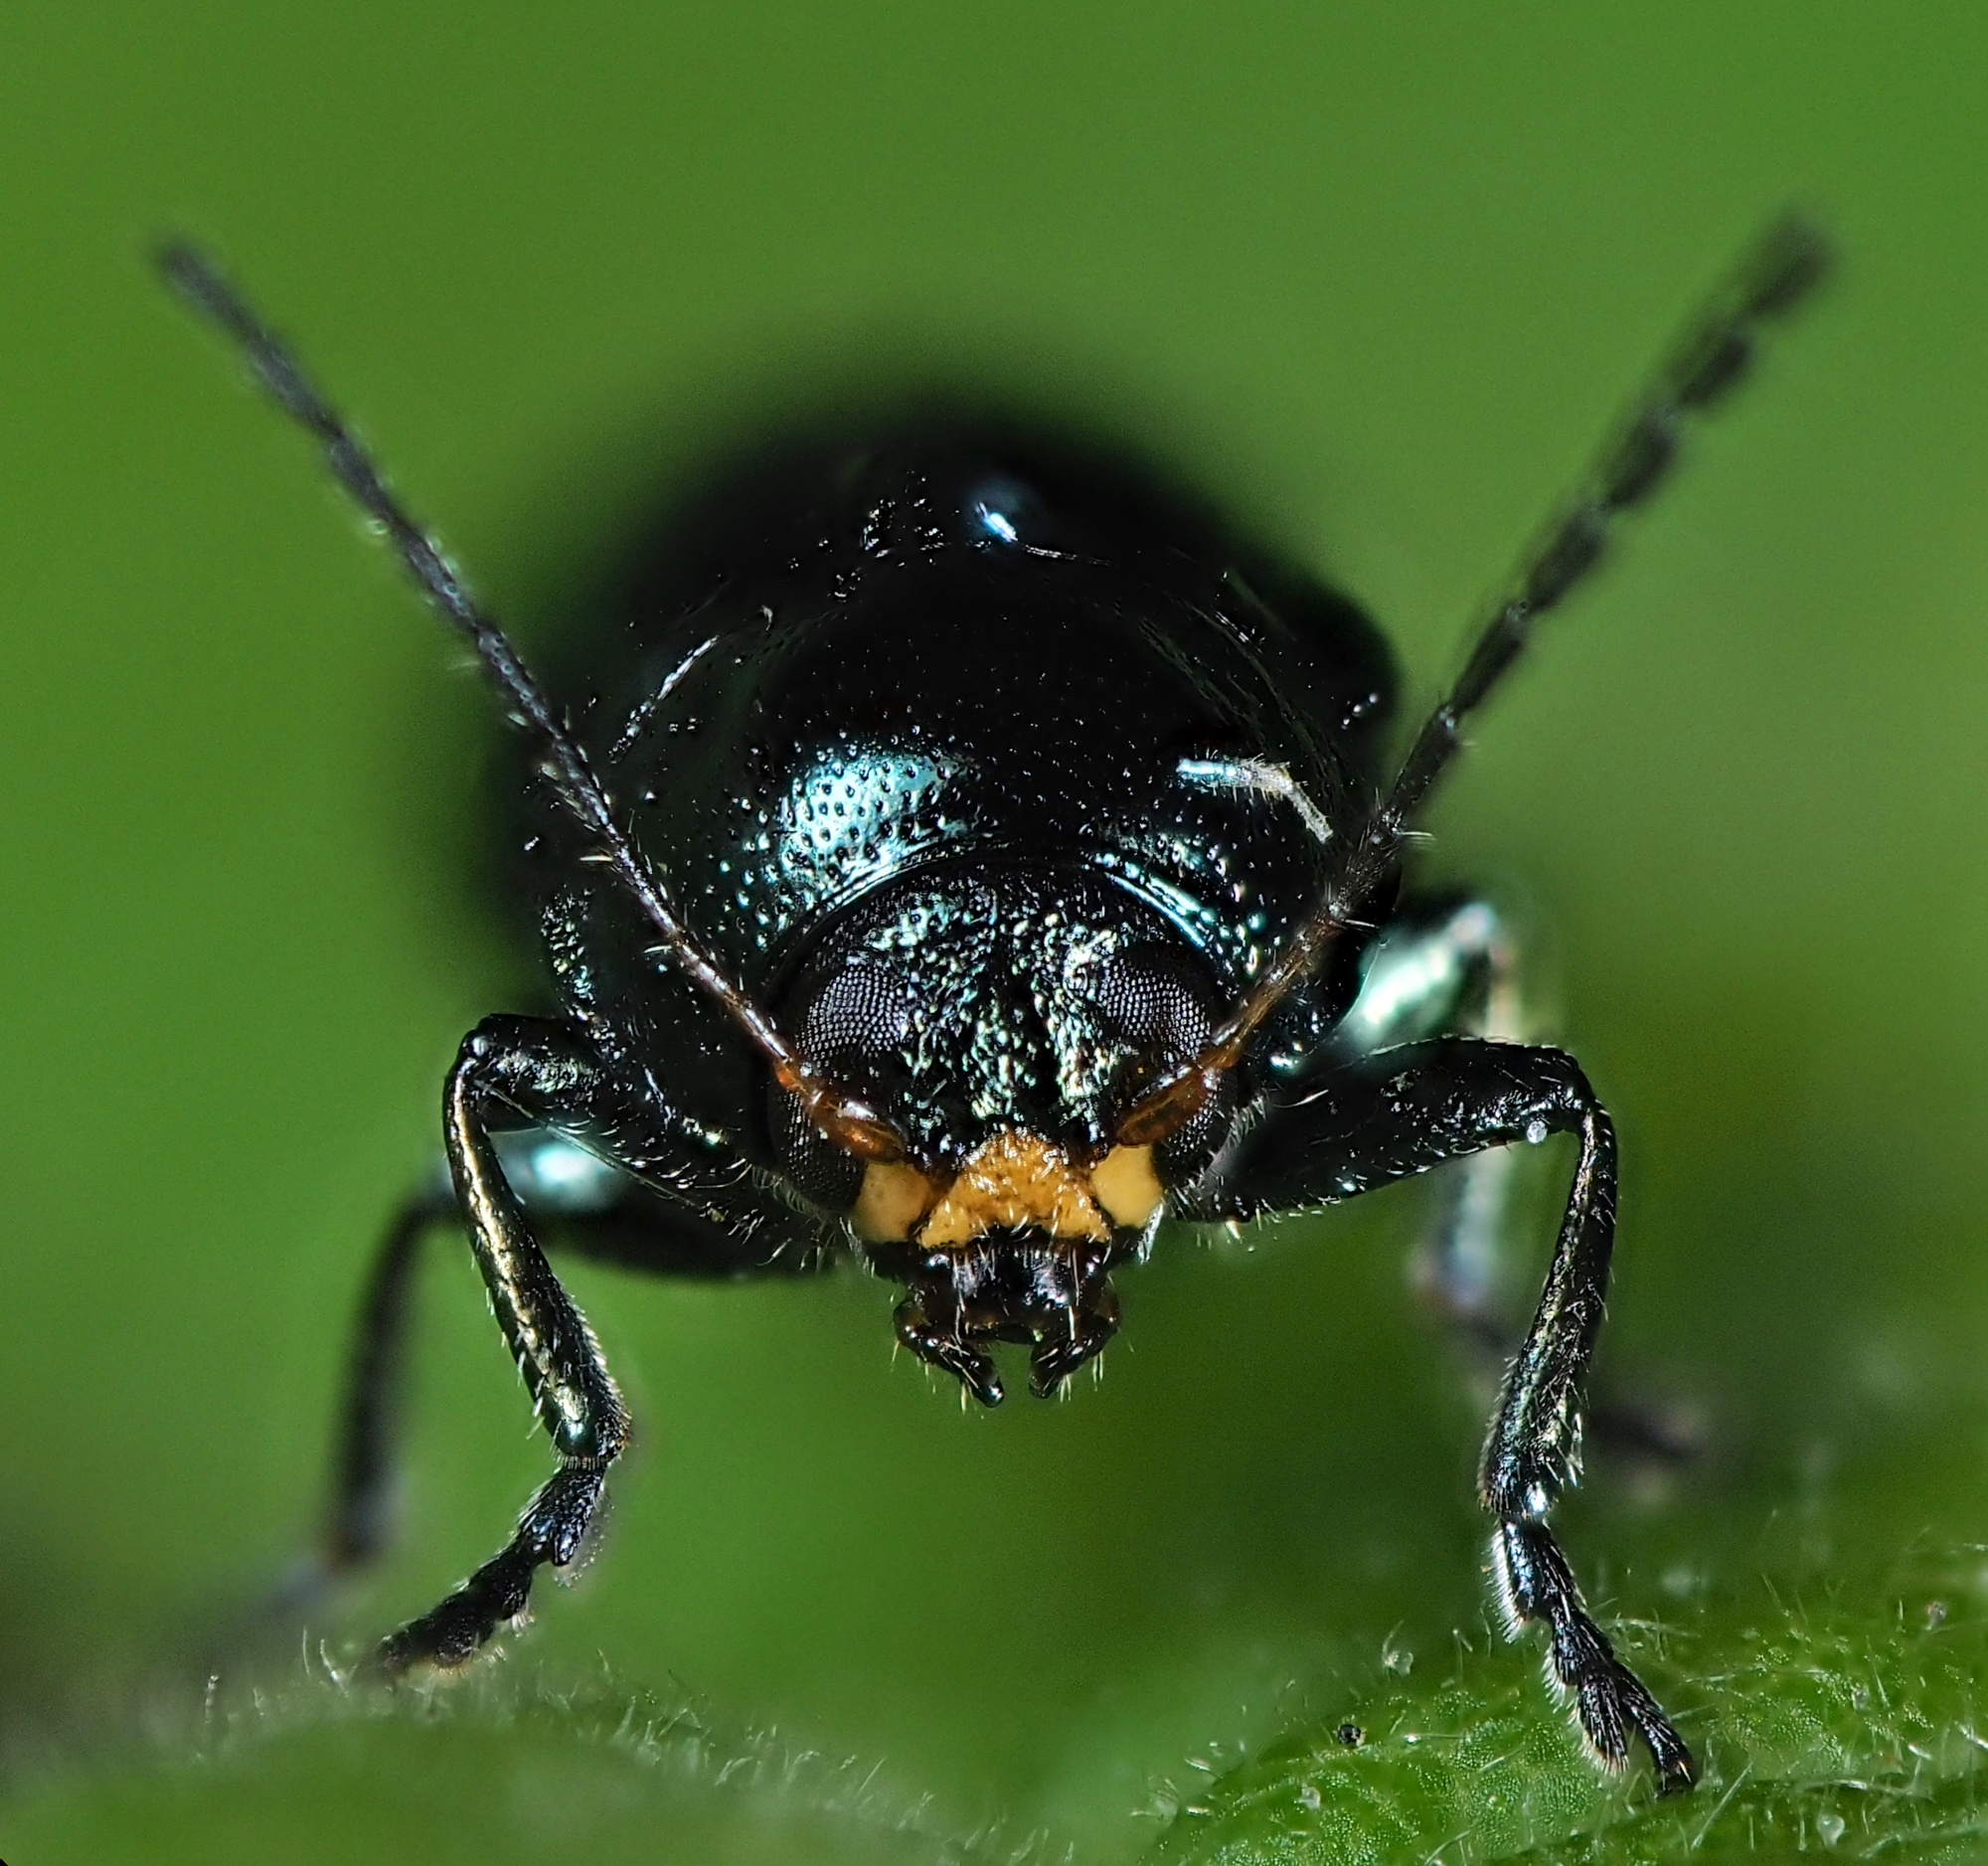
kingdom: Animalia
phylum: Arthropoda
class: Insecta
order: Coleoptera
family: Chrysomelidae
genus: Cryptocephalus
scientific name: Cryptocephalus parvulus
